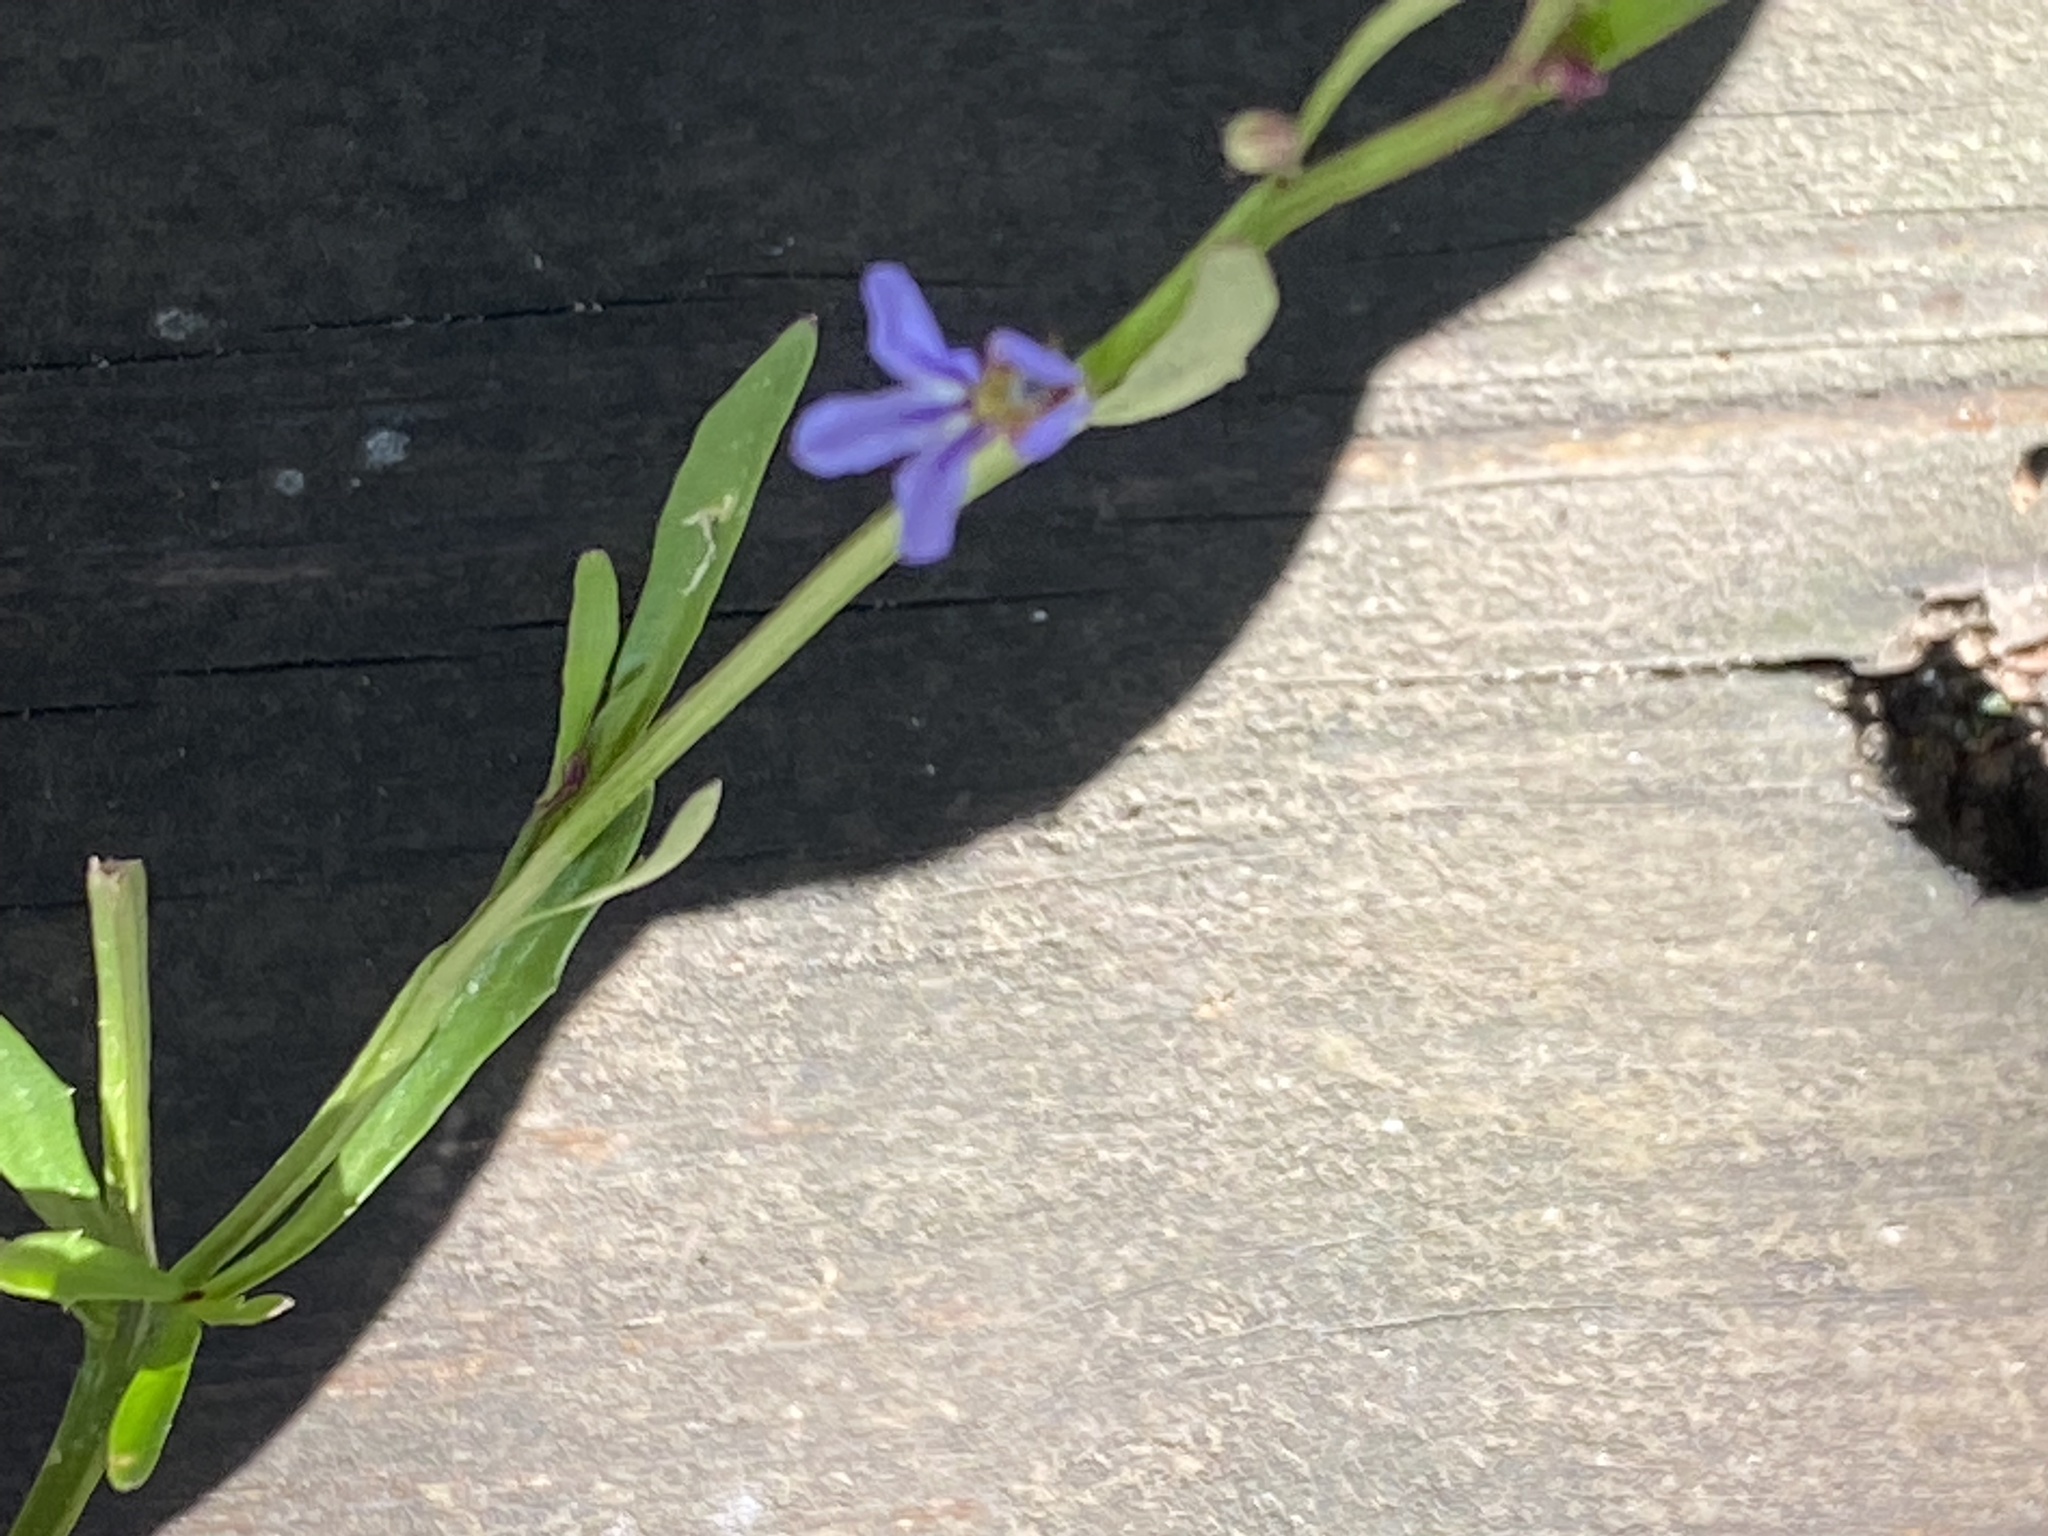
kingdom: Plantae
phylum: Tracheophyta
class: Magnoliopsida
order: Asterales
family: Campanulaceae
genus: Lobelia
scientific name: Lobelia anceps
